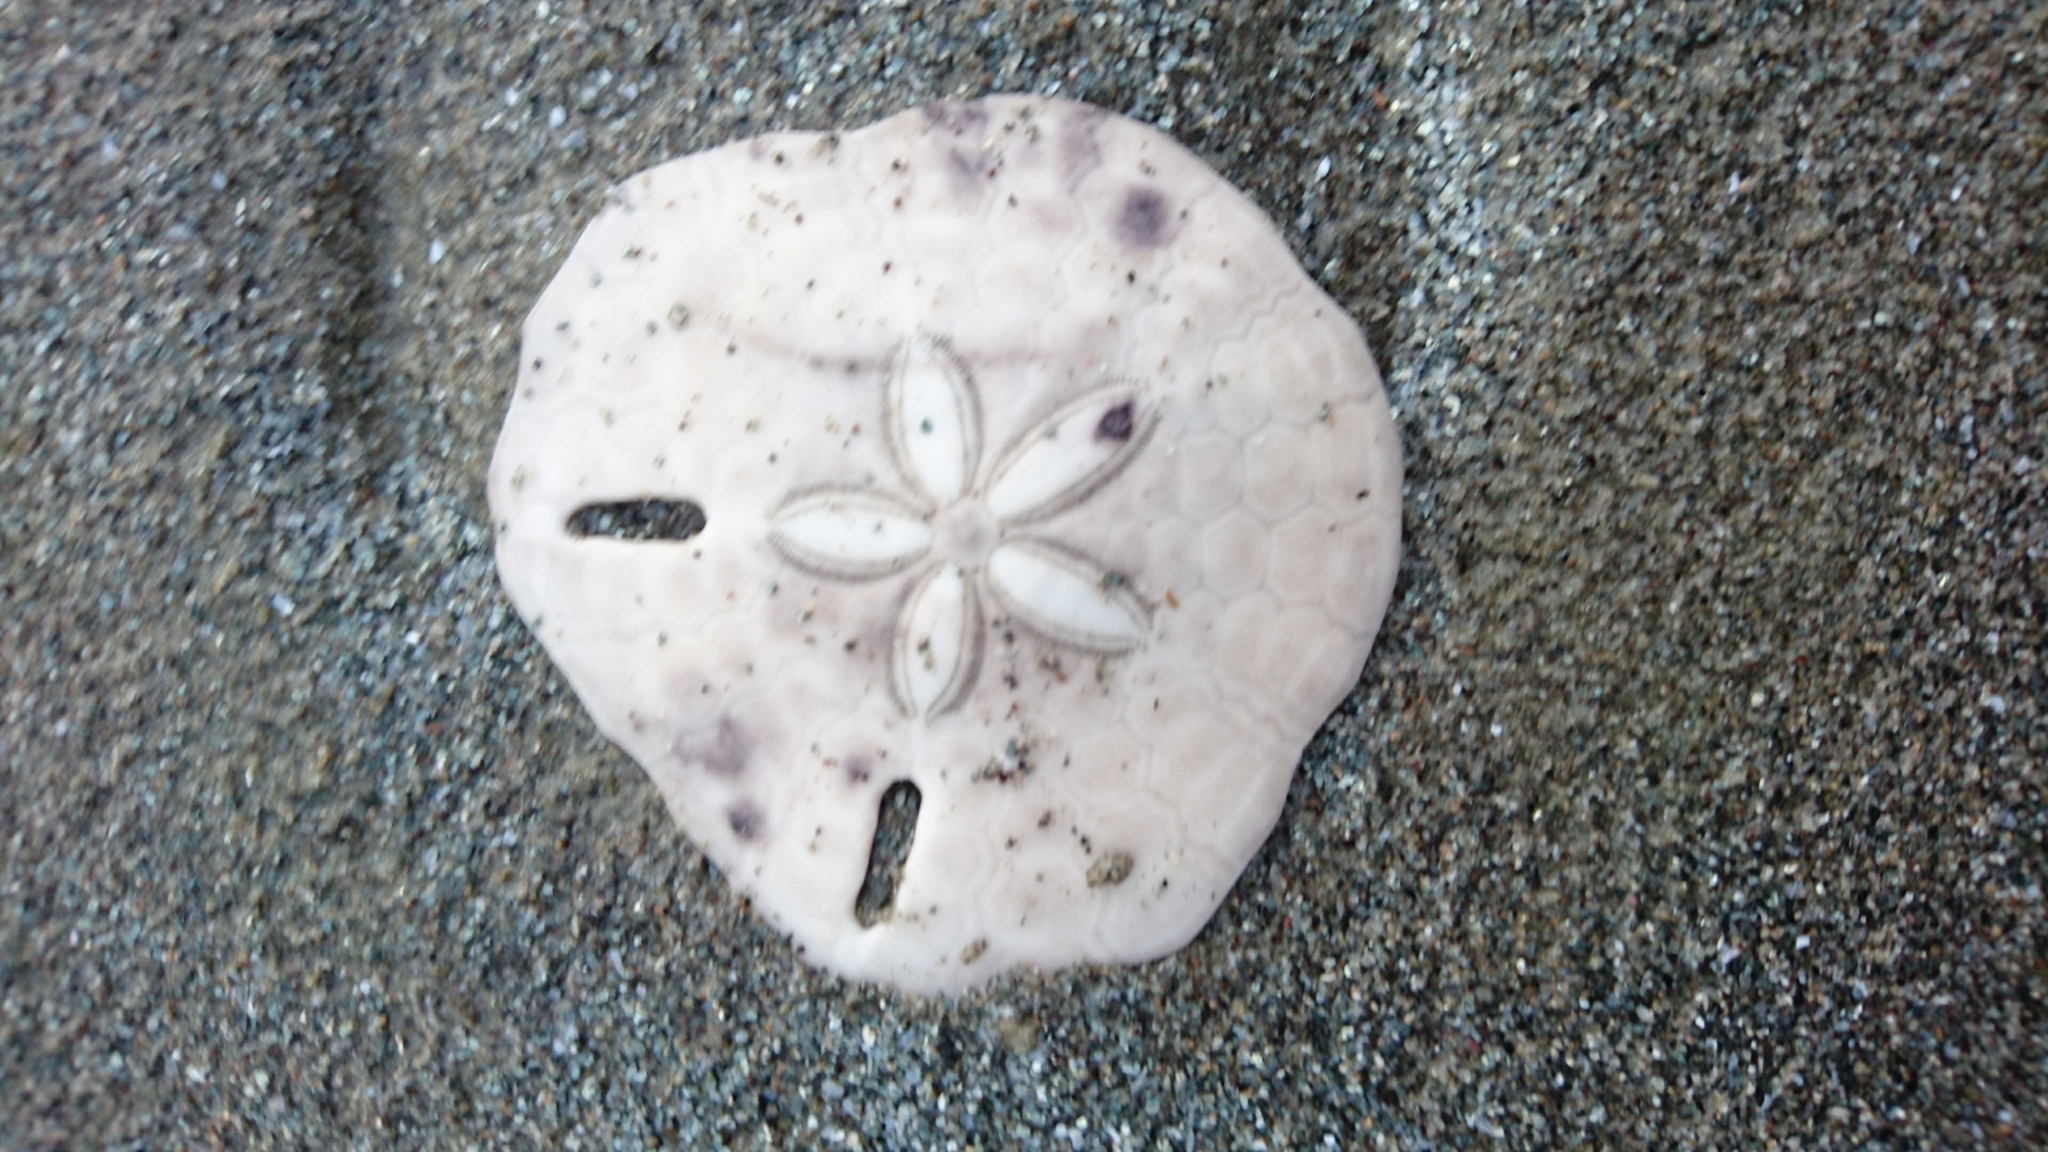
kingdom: Animalia
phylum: Echinodermata
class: Echinoidea
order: Echinolampadacea
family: Astriclypeidae
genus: Echinodiscus
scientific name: Echinodiscus
